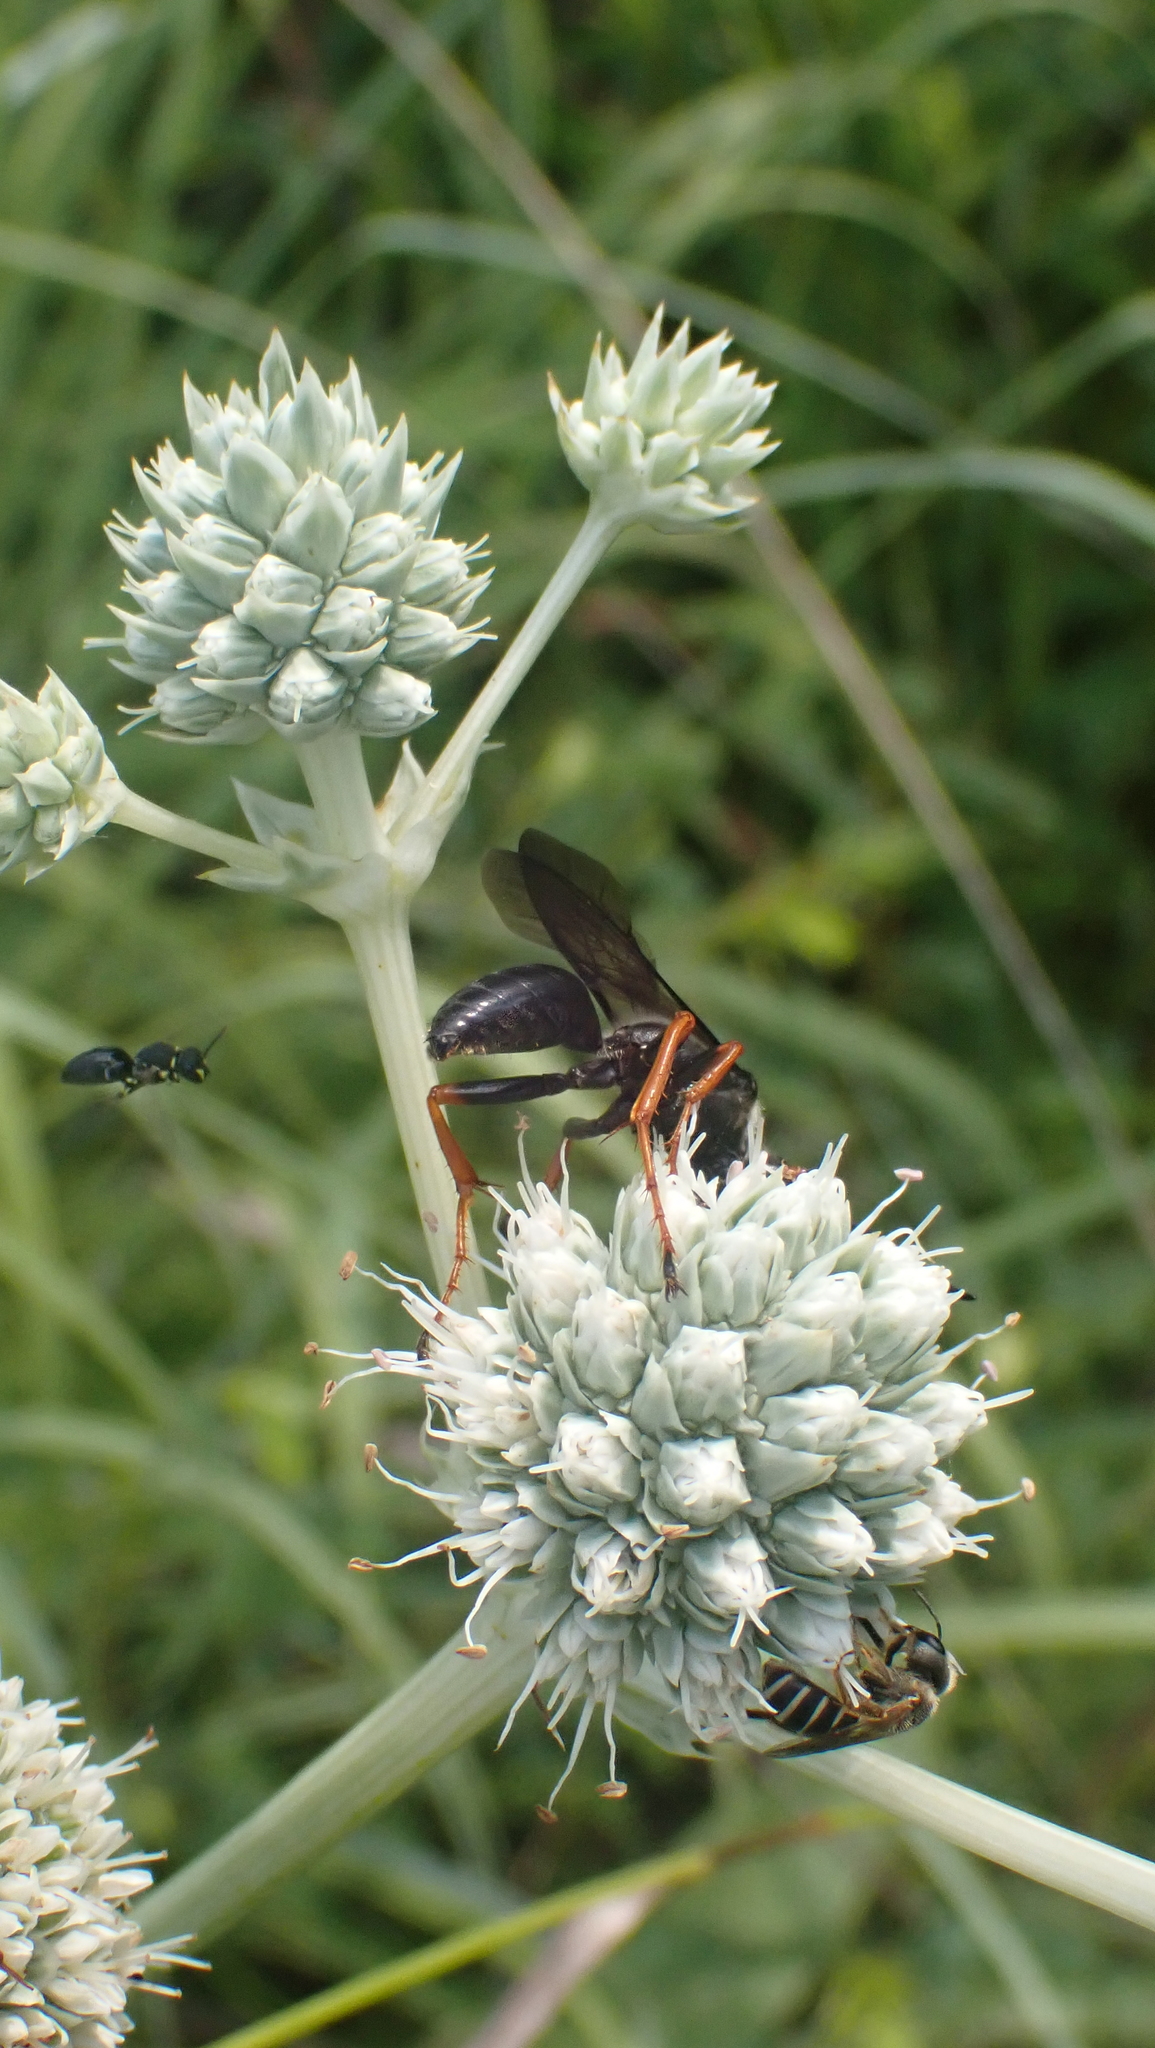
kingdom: Animalia
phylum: Arthropoda
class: Insecta
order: Hymenoptera
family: Sphecidae
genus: Sphex
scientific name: Sphex nudus
